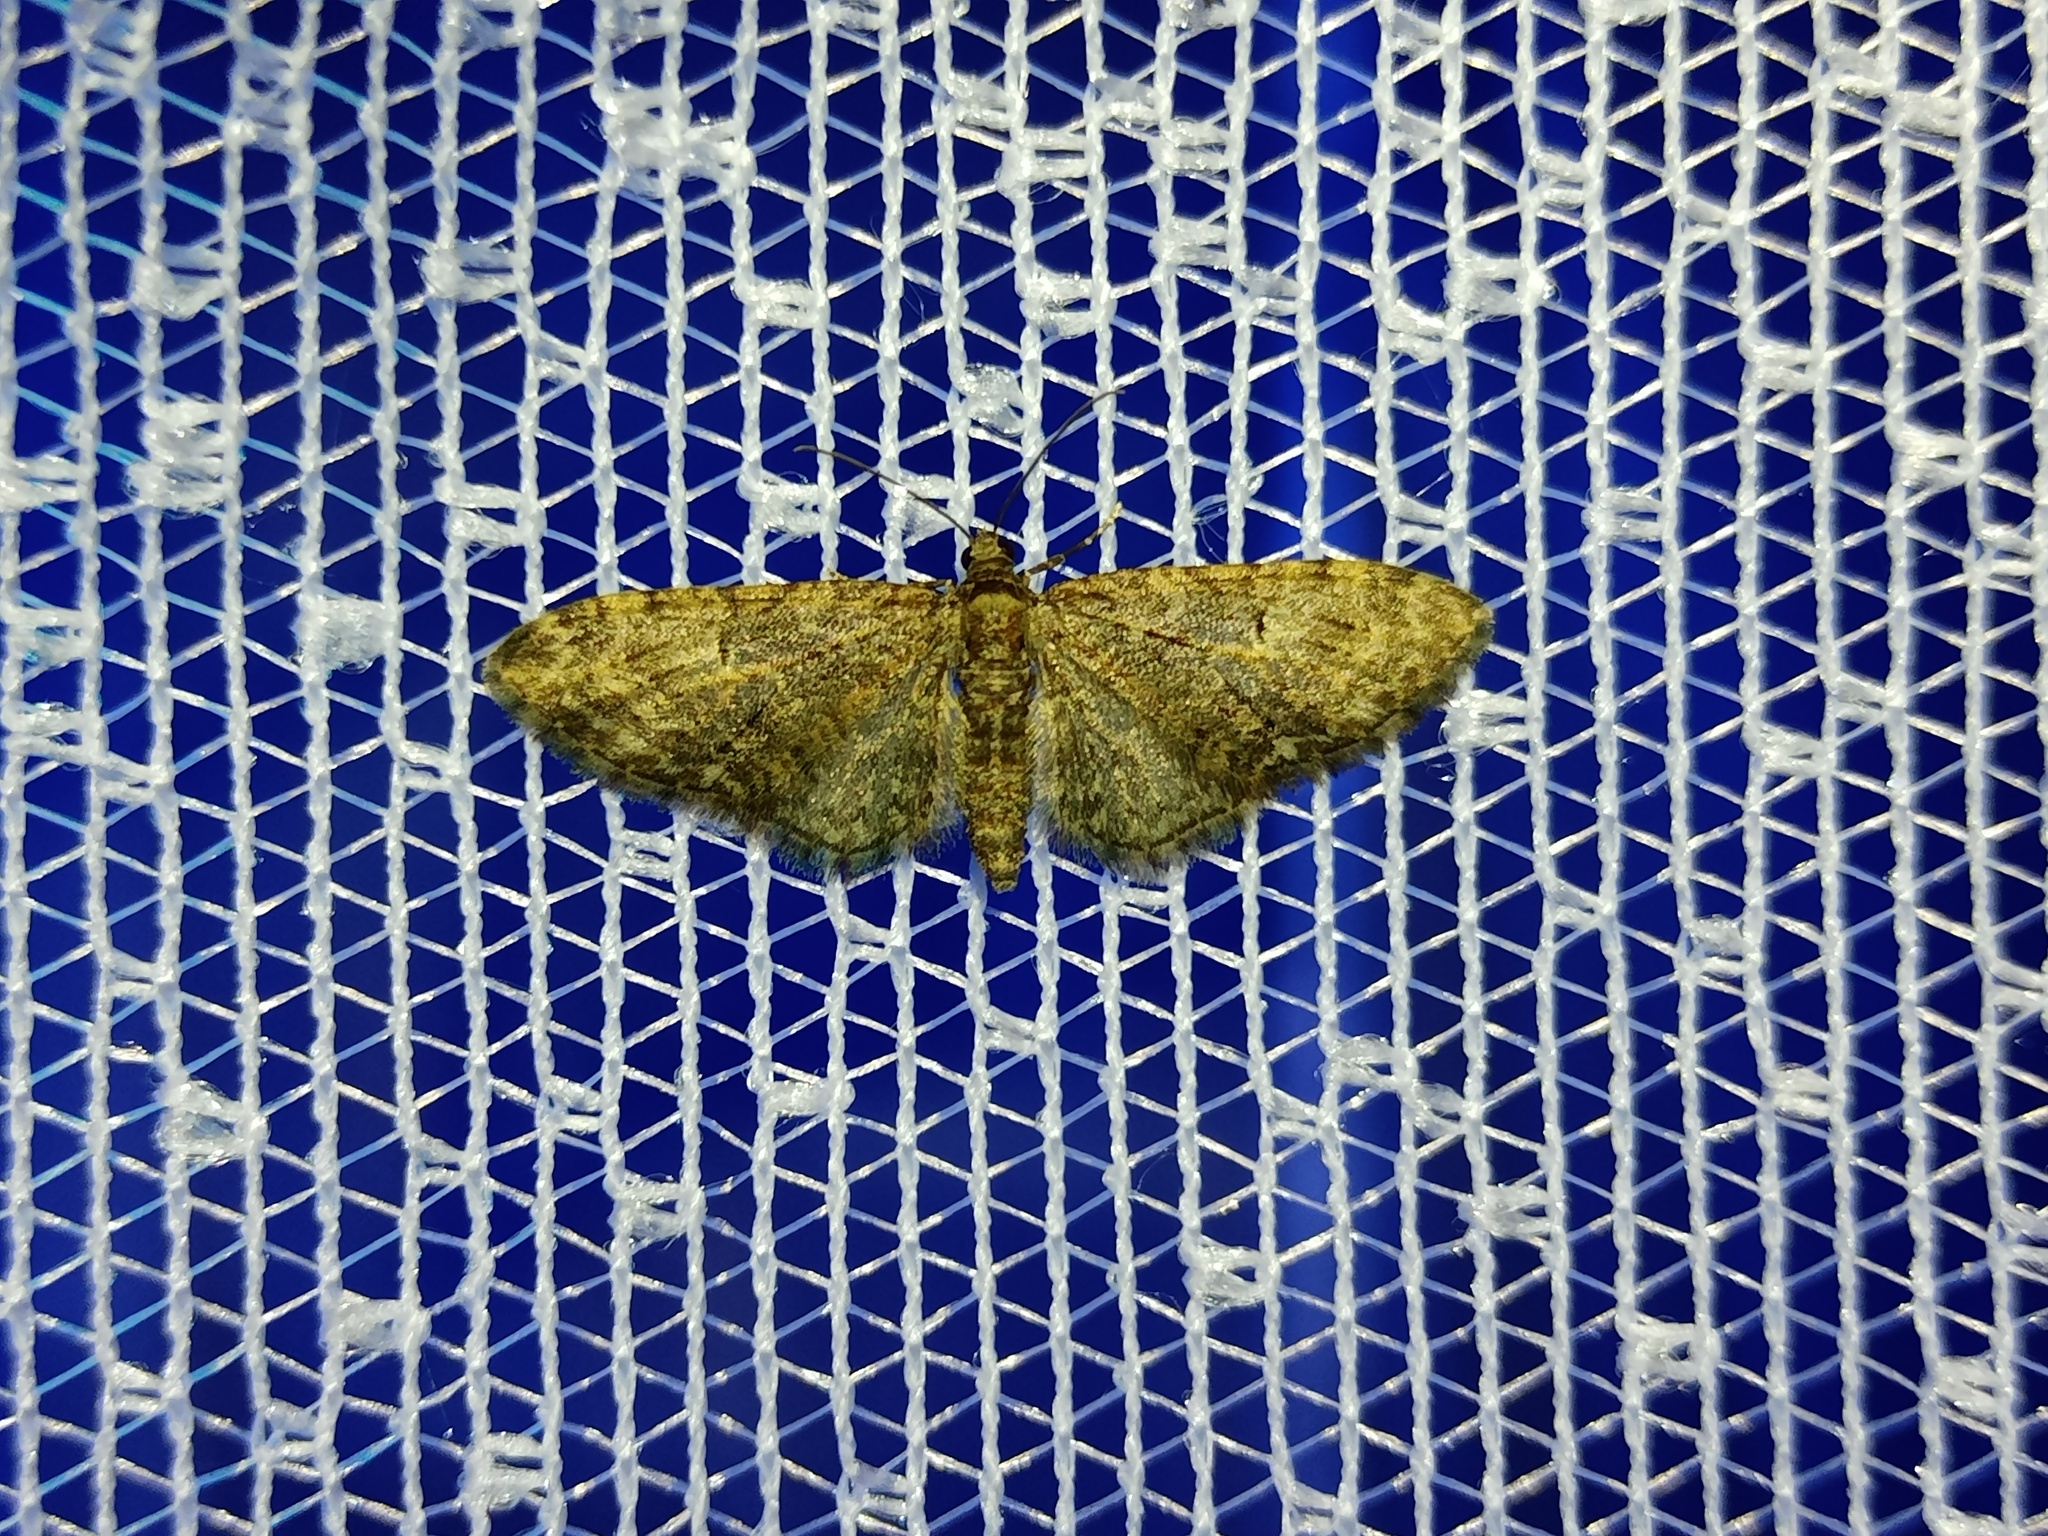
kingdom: Animalia
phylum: Arthropoda
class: Insecta
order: Lepidoptera
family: Geometridae
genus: Eupithecia
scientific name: Eupithecia abbreviata
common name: Brindled pug
